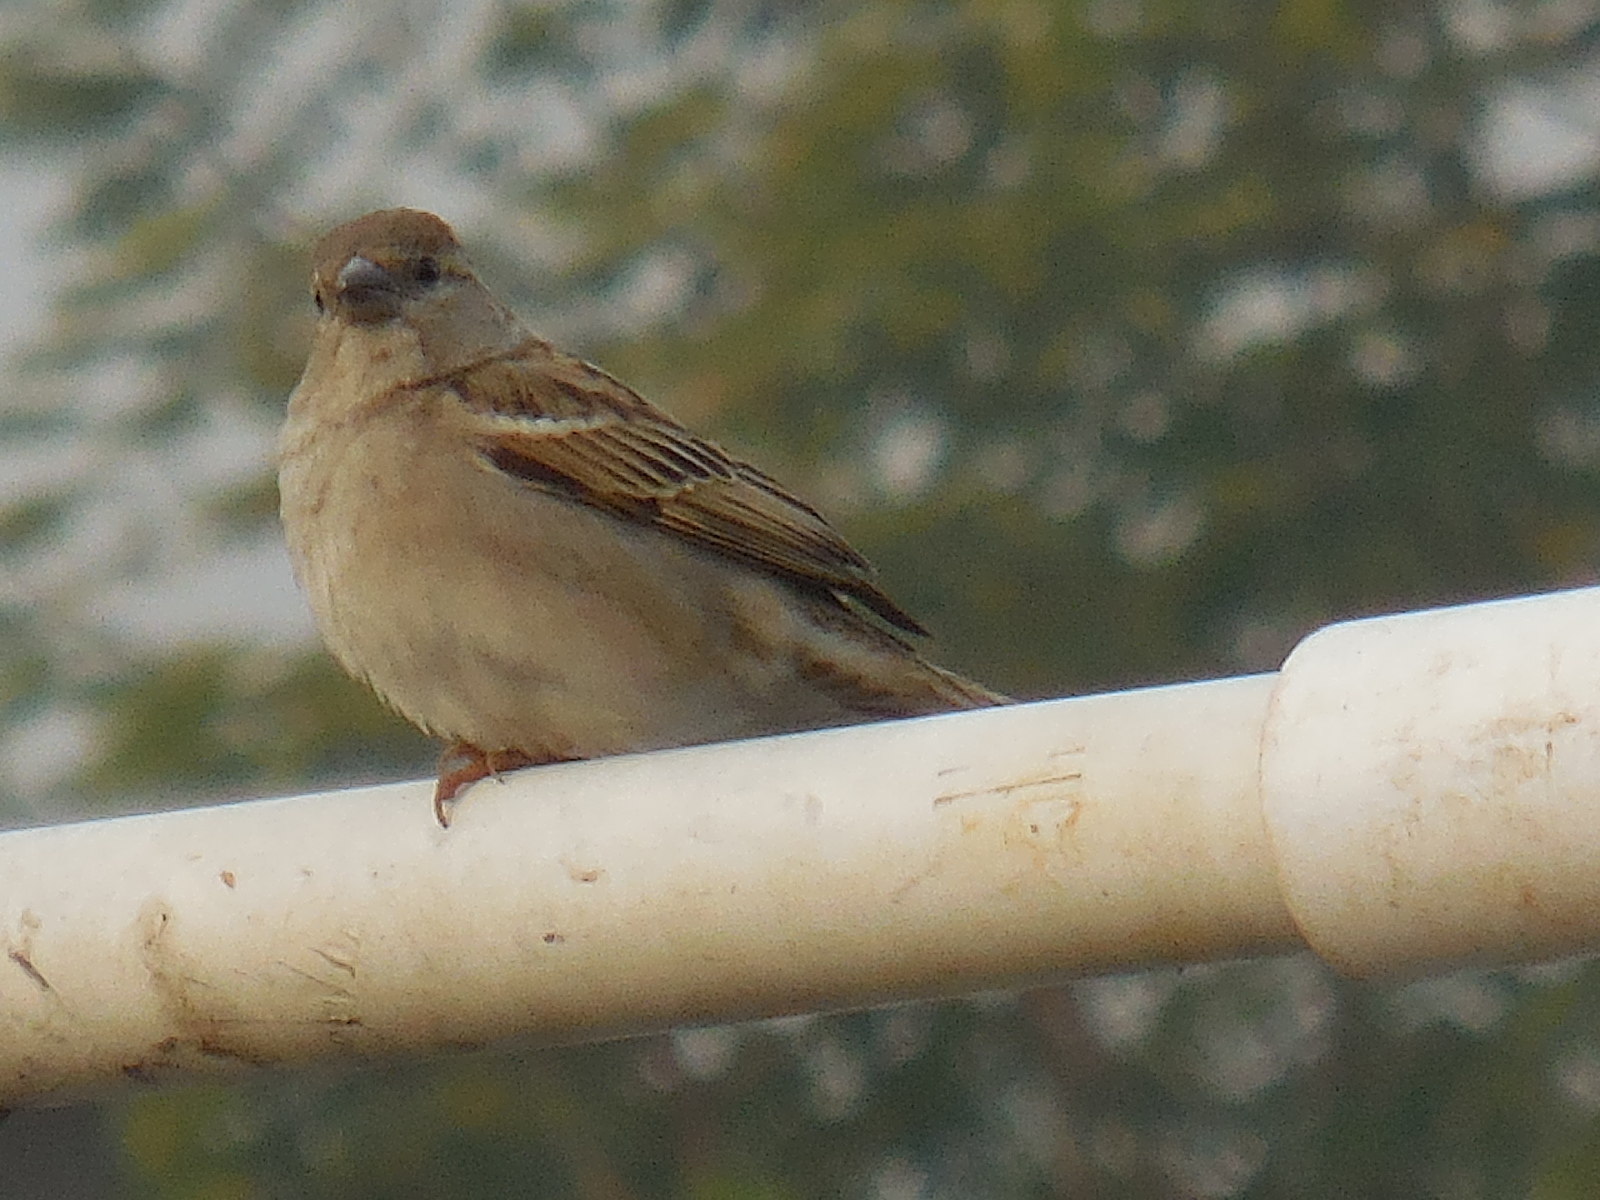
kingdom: Animalia
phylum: Chordata
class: Aves
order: Passeriformes
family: Passeridae
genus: Passer
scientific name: Passer domesticus
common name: House sparrow
